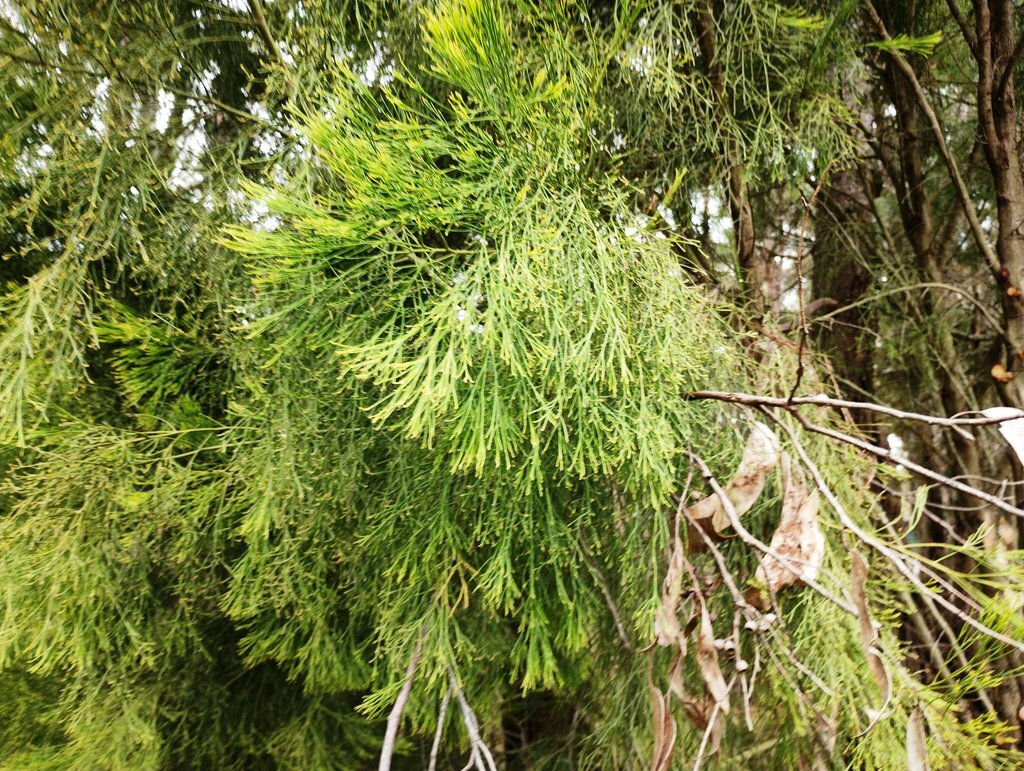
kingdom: Plantae
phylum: Tracheophyta
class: Magnoliopsida
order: Santalales
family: Santalaceae
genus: Exocarpos
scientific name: Exocarpos cupressiformis
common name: Cherry ballart
